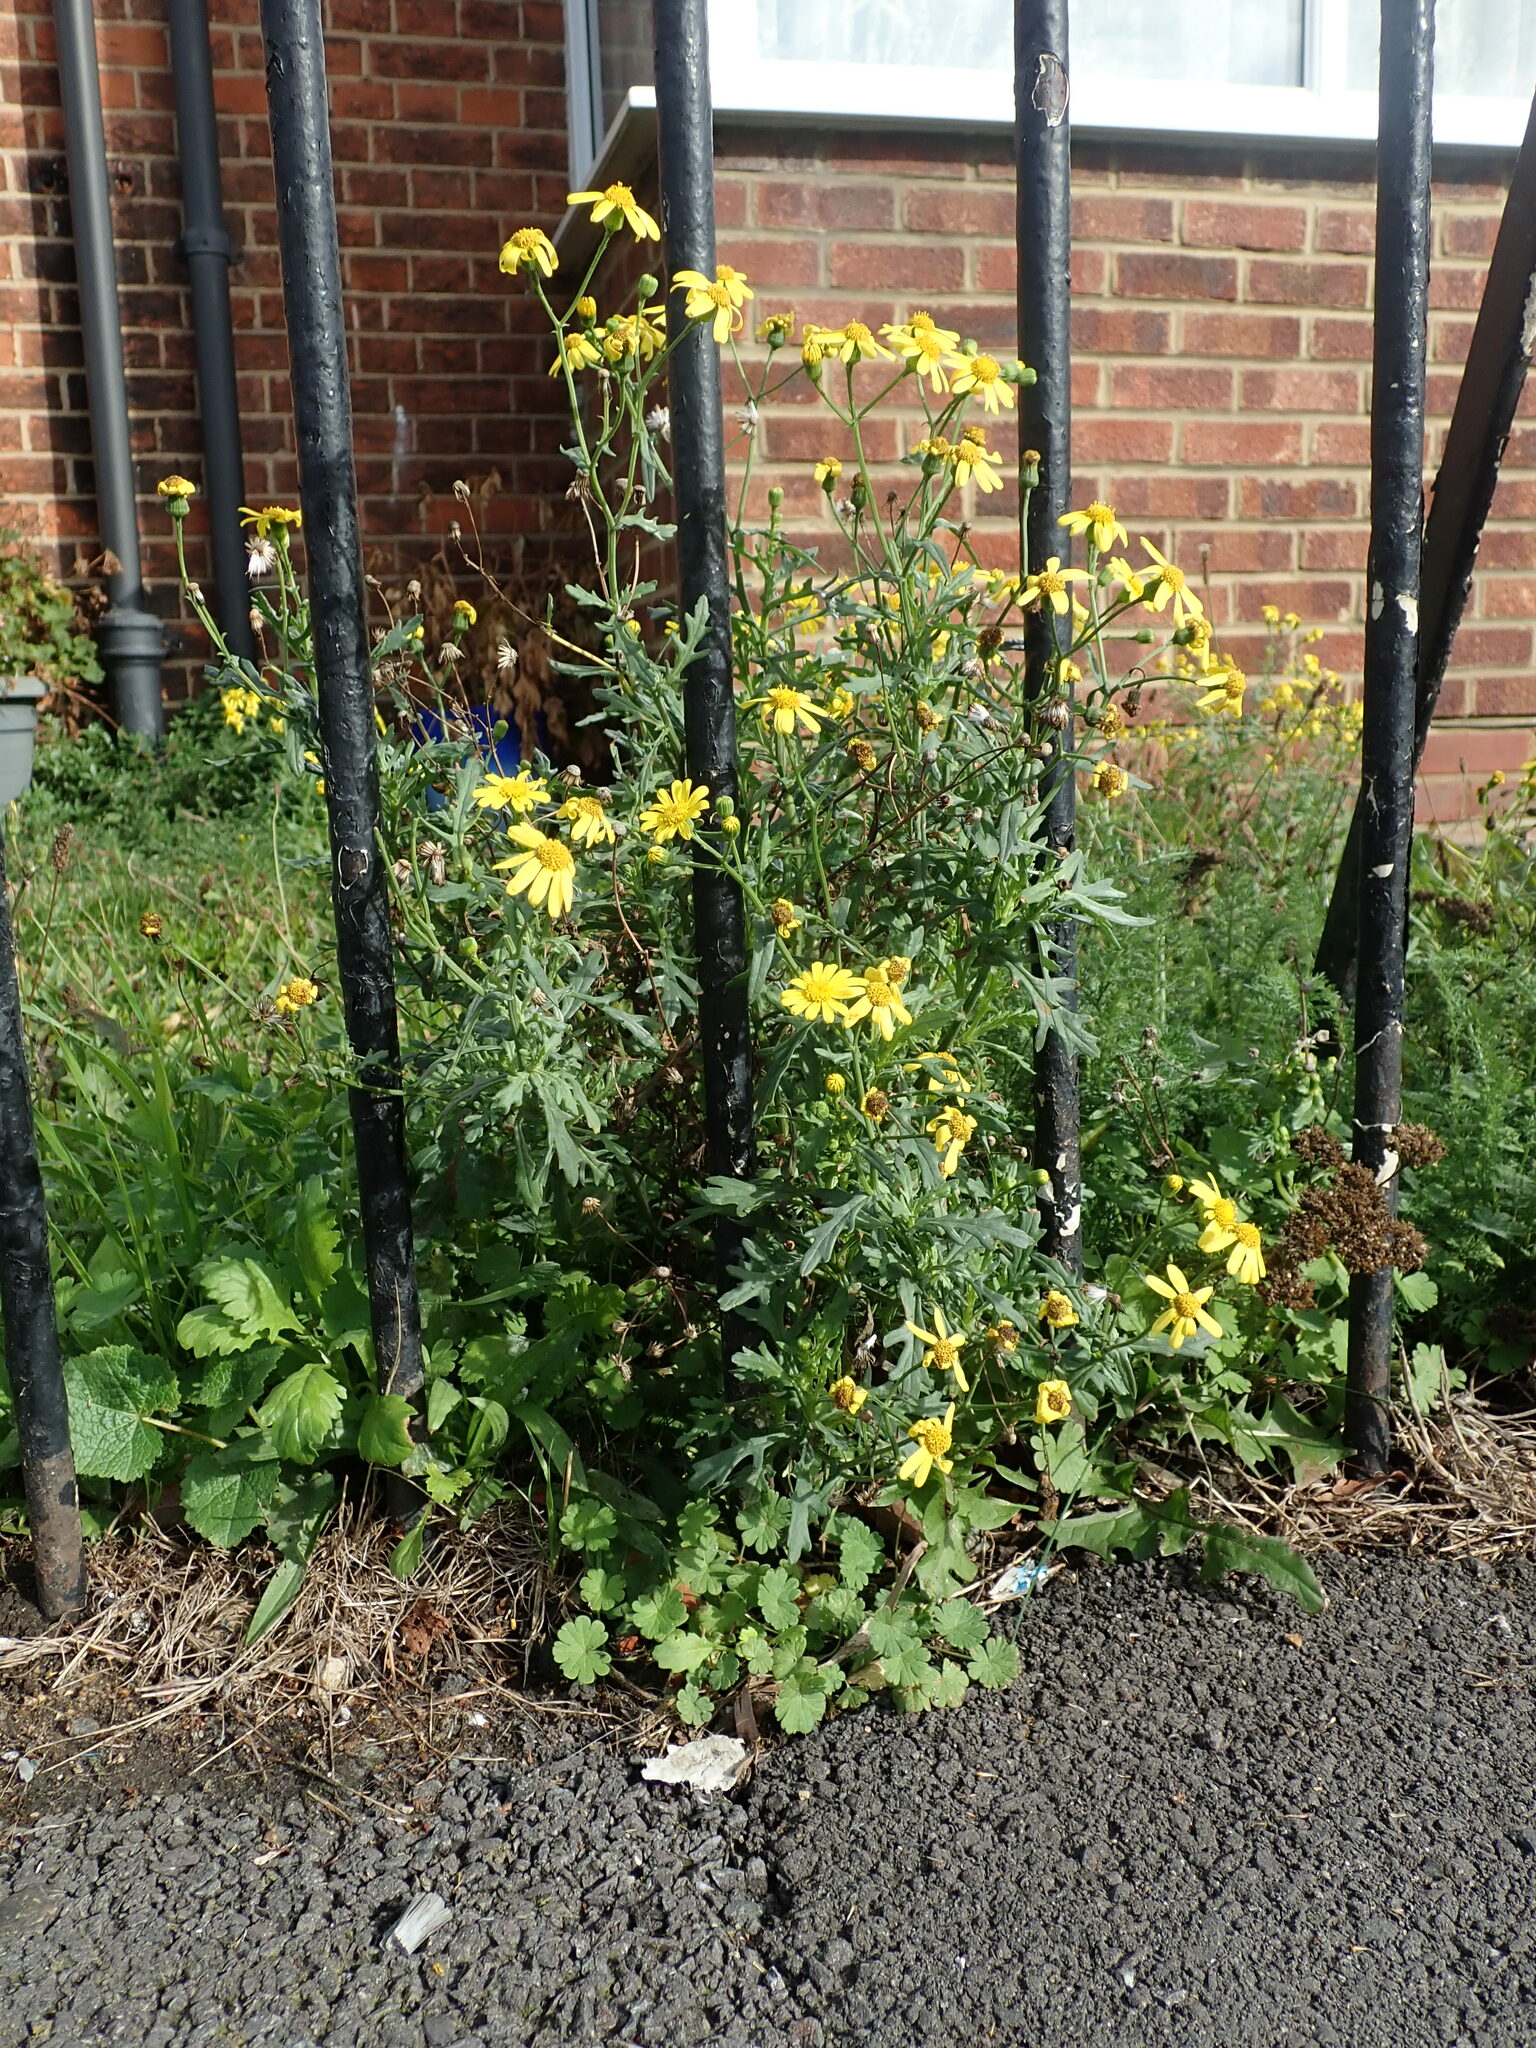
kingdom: Plantae
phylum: Tracheophyta
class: Magnoliopsida
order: Asterales
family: Asteraceae
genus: Senecio
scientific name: Senecio squalidus
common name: Oxford ragwort
